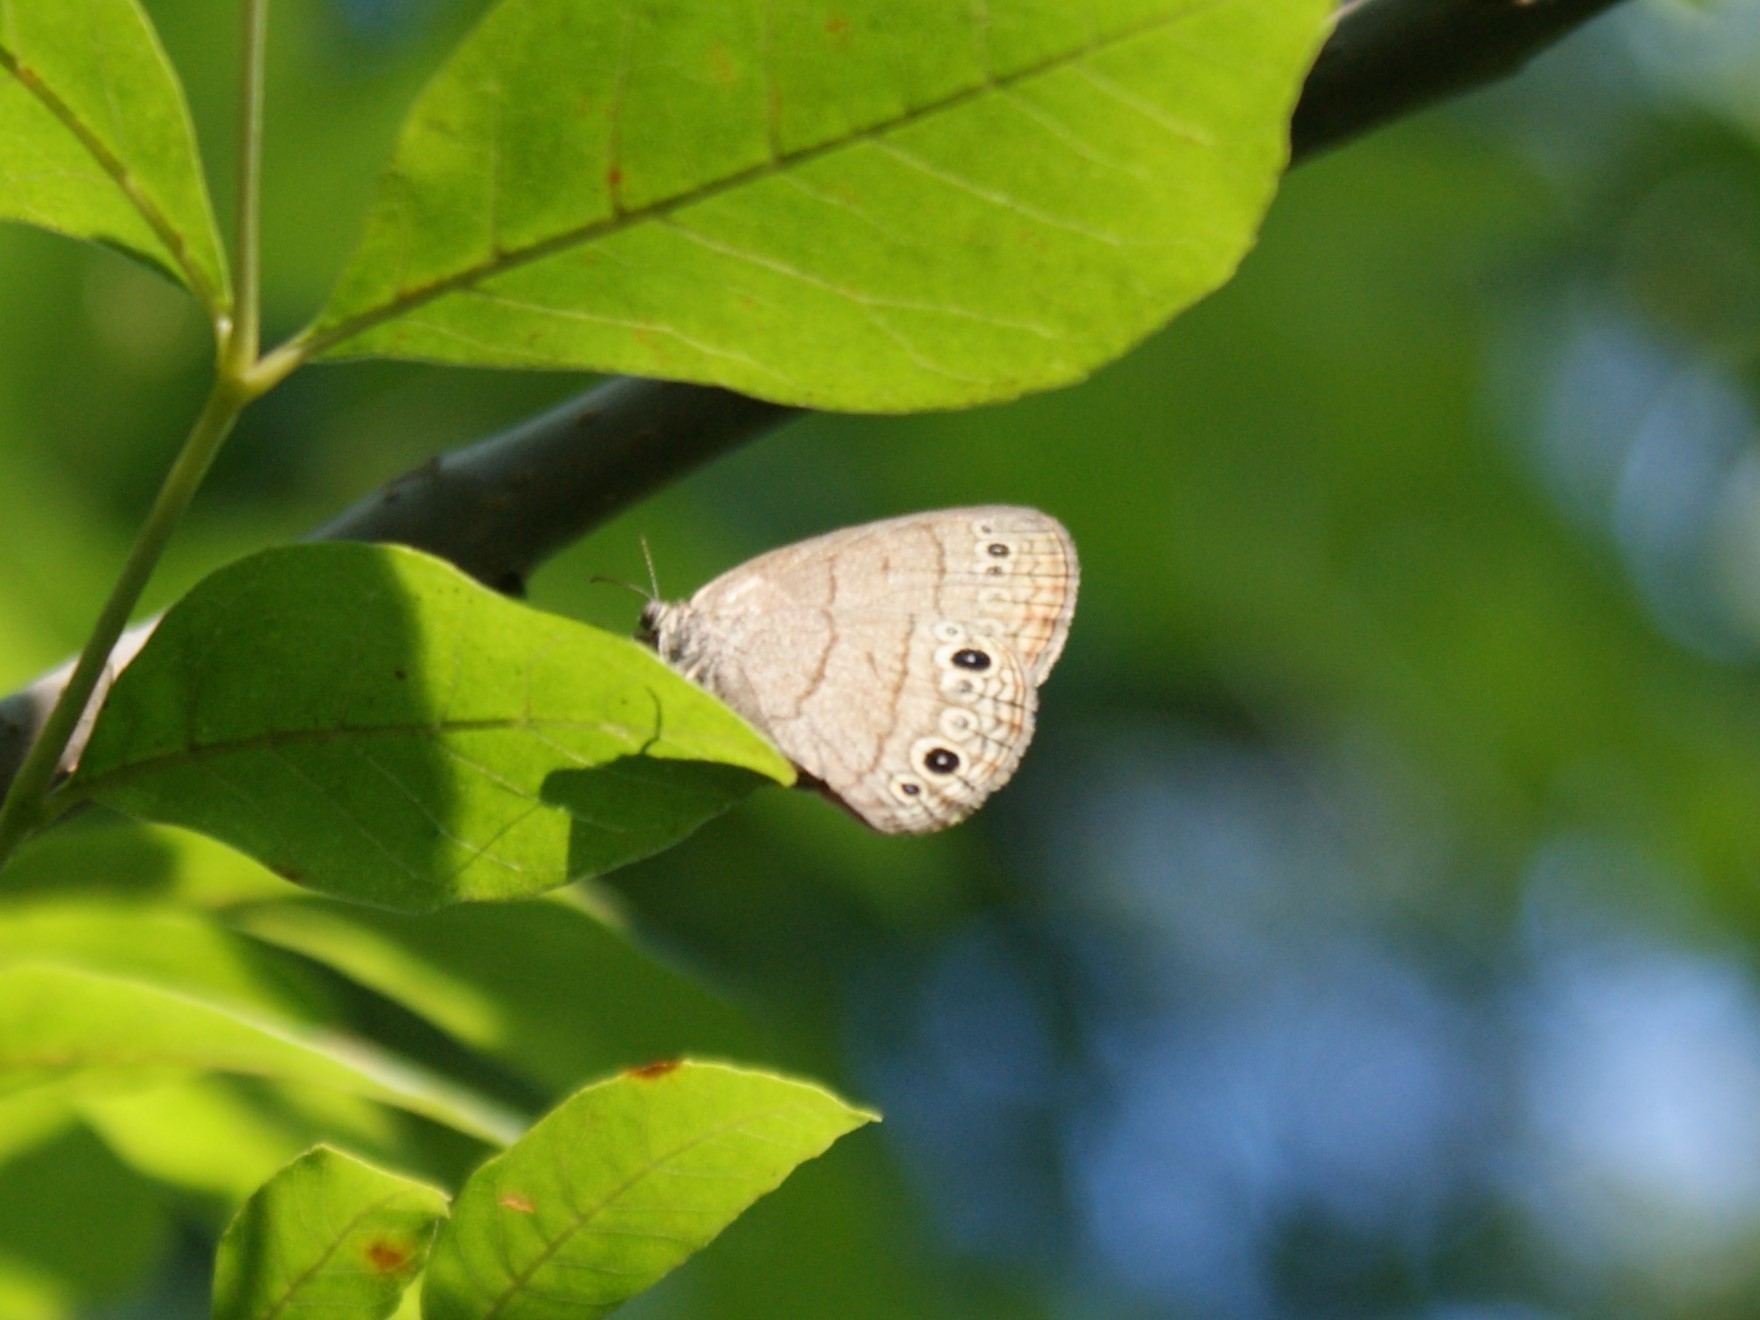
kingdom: Animalia
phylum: Arthropoda
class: Insecta
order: Lepidoptera
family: Nymphalidae
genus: Hermeuptychia
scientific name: Hermeuptychia hermes
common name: Hermes satyr
